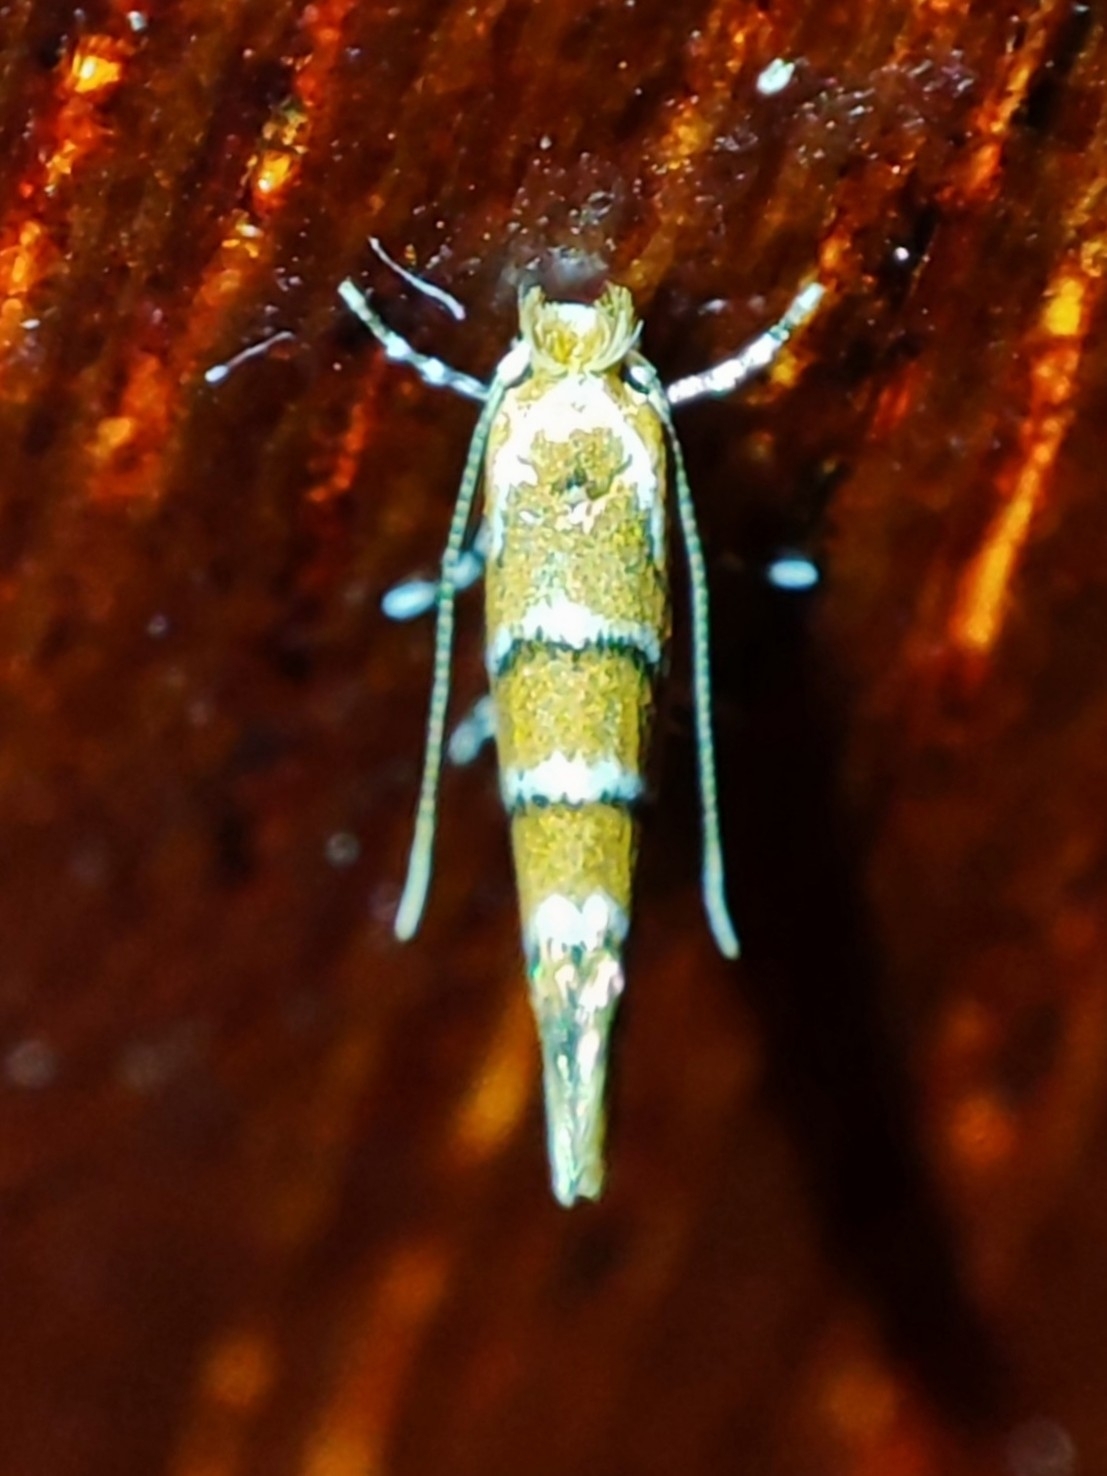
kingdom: Animalia
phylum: Arthropoda
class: Insecta
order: Lepidoptera
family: Gracillariidae
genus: Cameraria
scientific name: Cameraria ohridella
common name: Horse-chestnut leaf-miner
